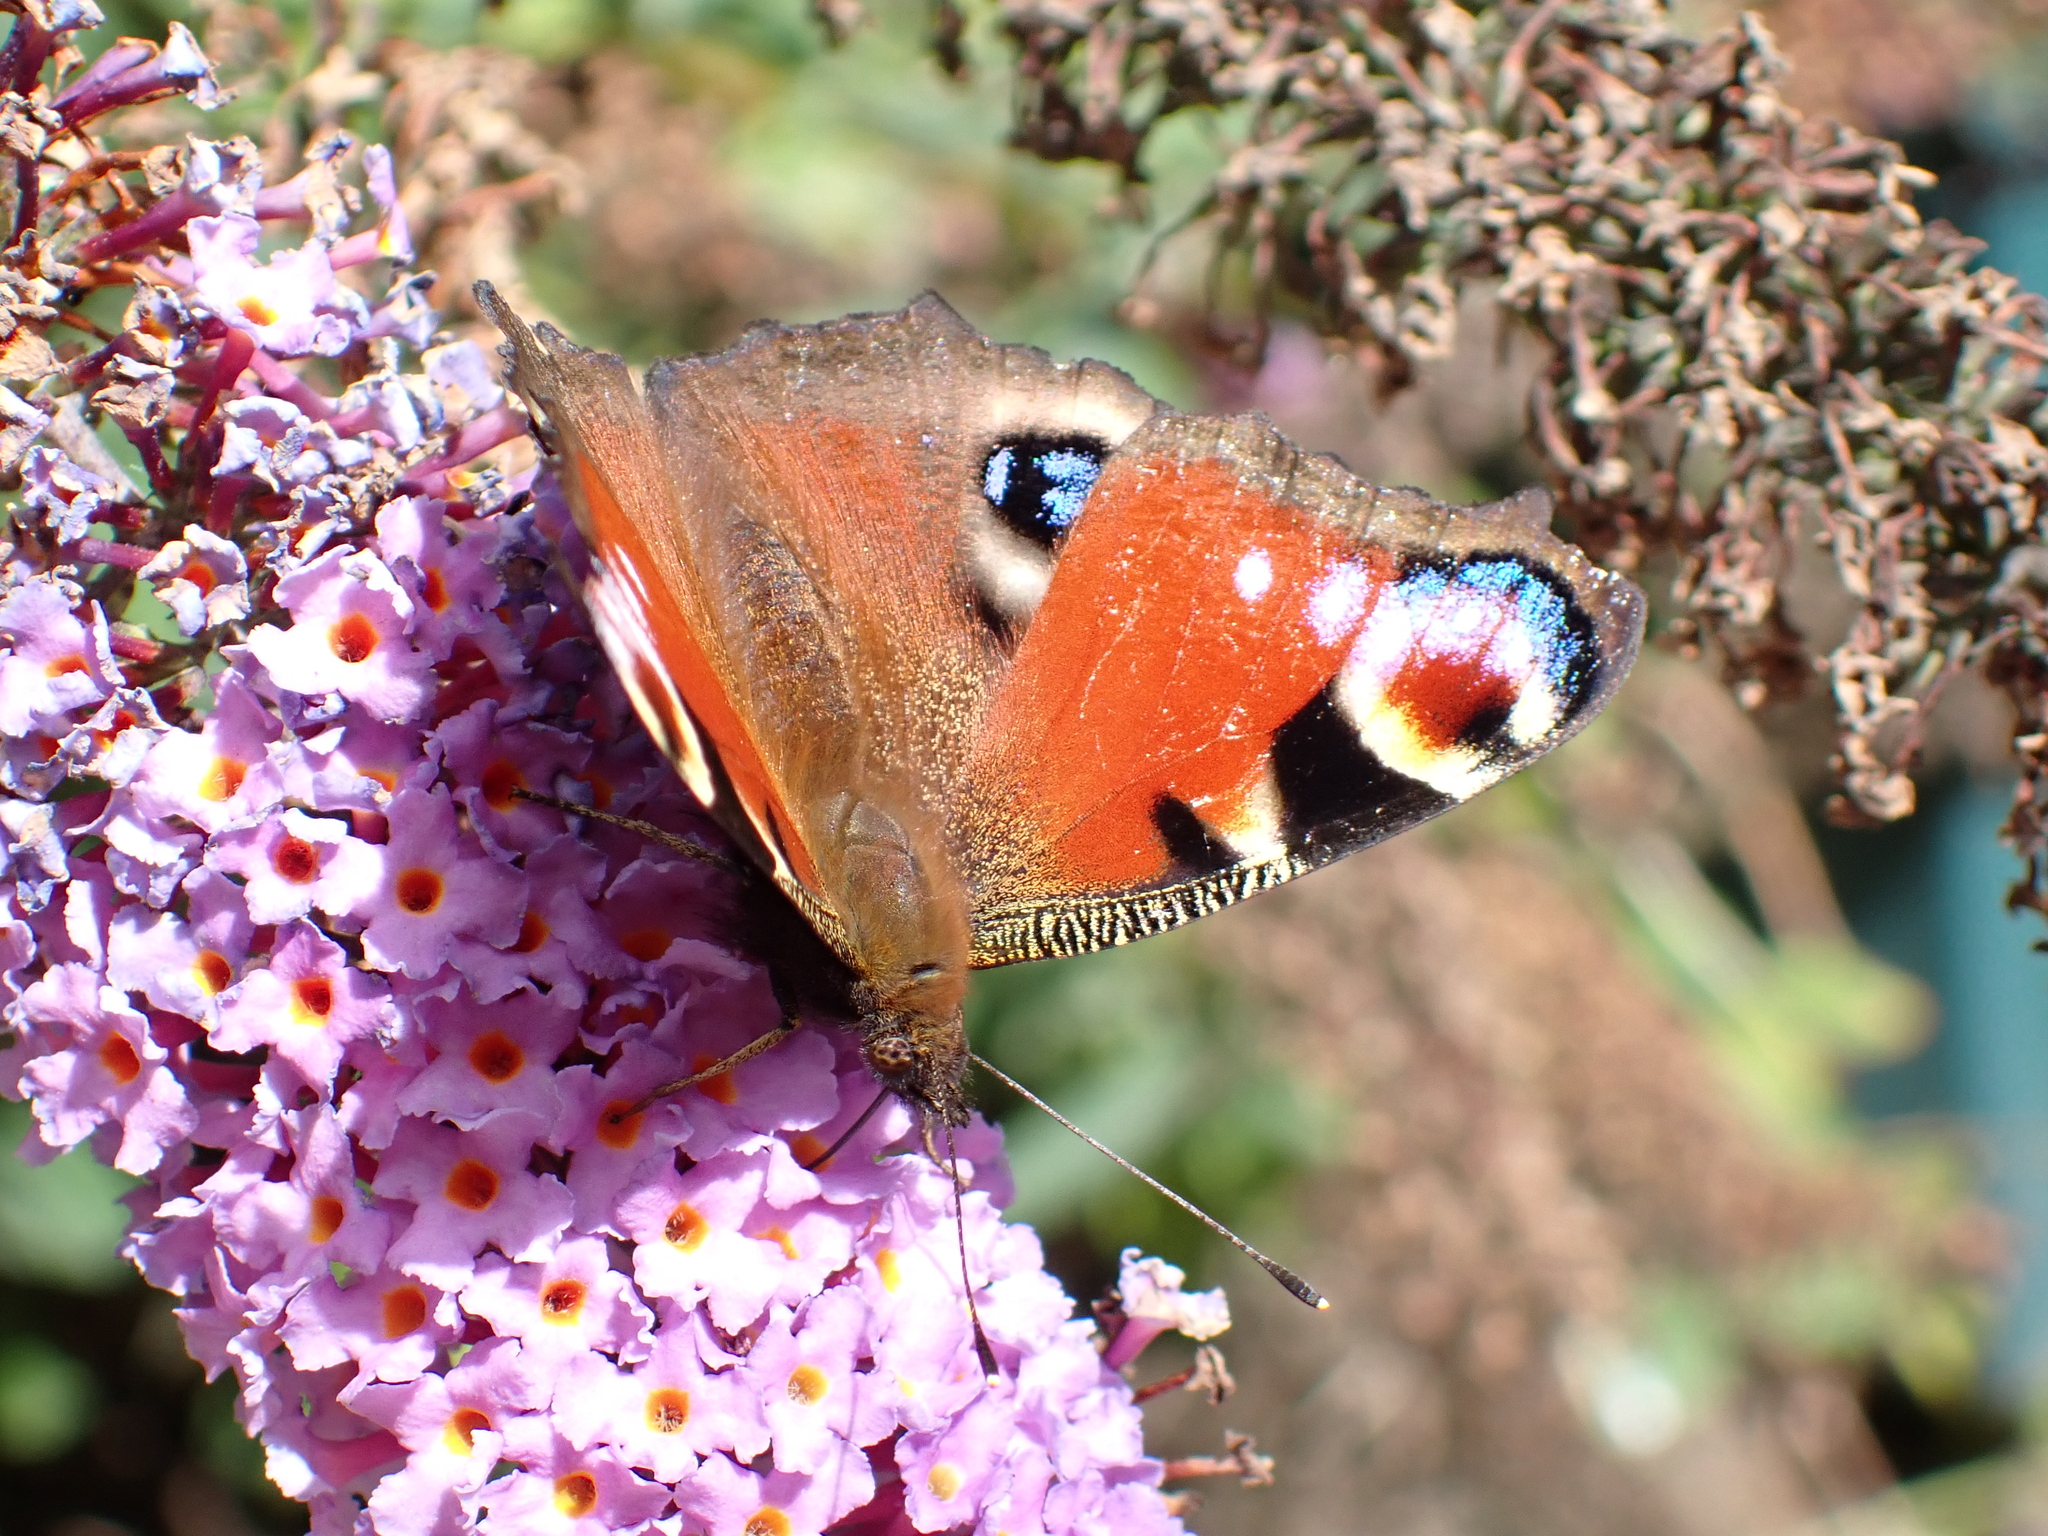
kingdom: Animalia
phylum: Arthropoda
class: Insecta
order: Lepidoptera
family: Nymphalidae
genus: Aglais
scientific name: Aglais io
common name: Peacock
